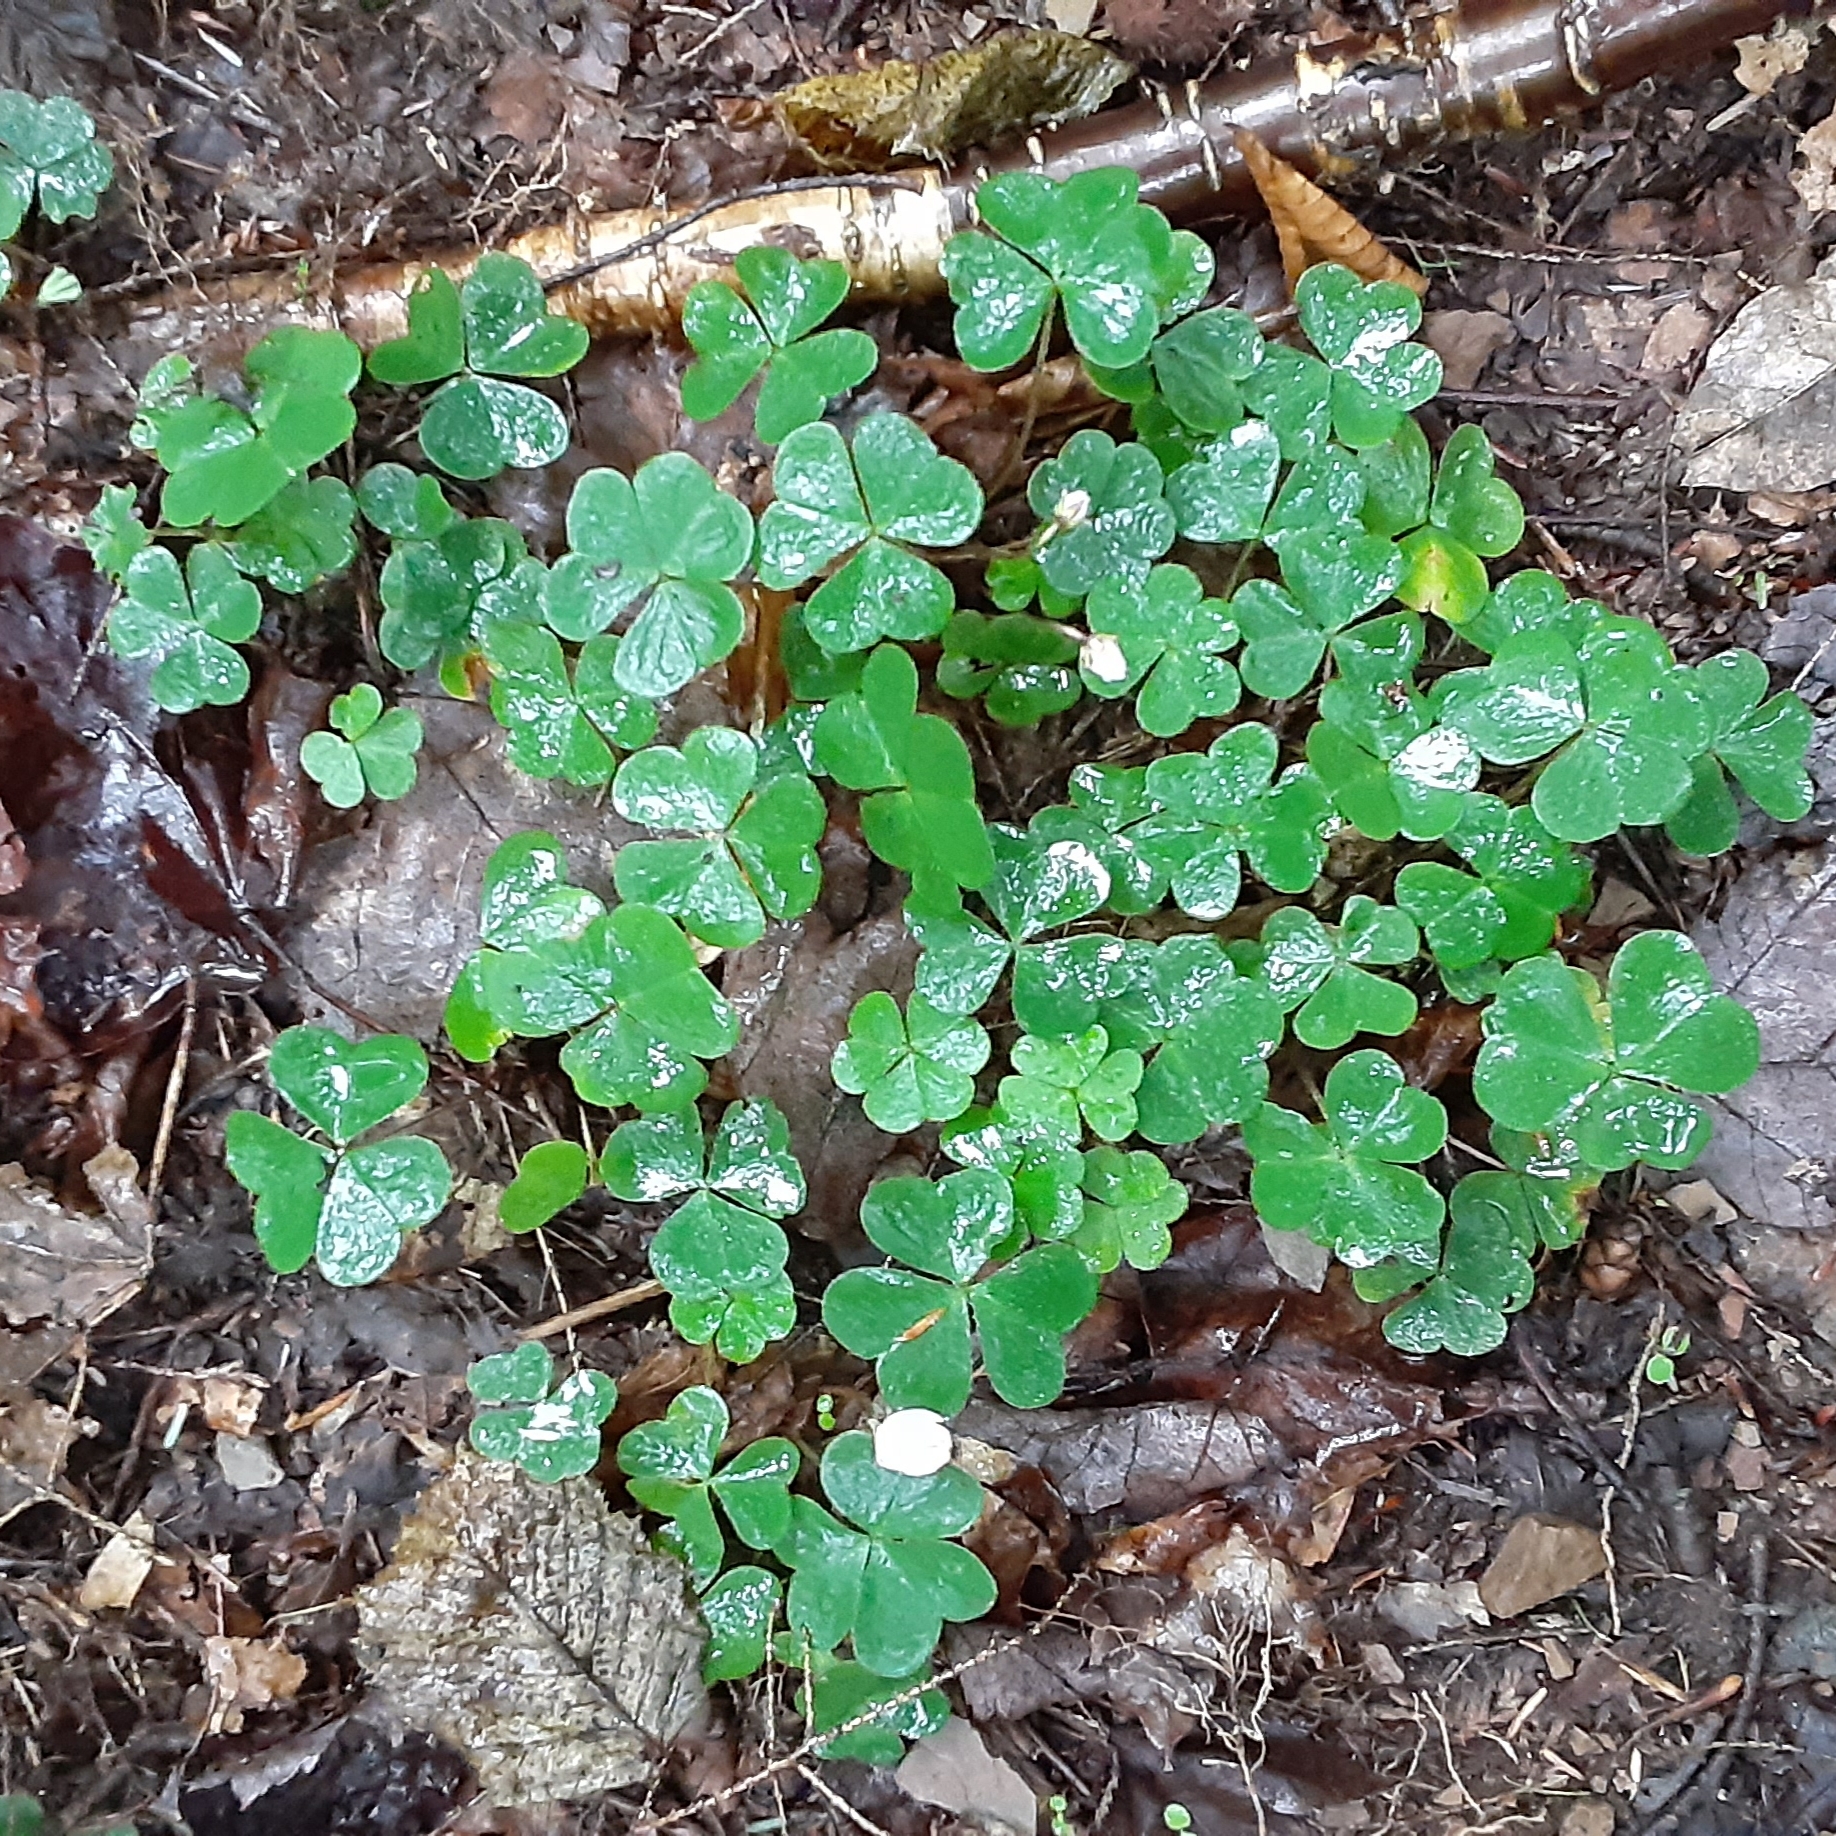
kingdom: Plantae
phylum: Tracheophyta
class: Magnoliopsida
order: Oxalidales
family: Oxalidaceae
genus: Oxalis
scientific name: Oxalis montana
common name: American wood-sorrel
